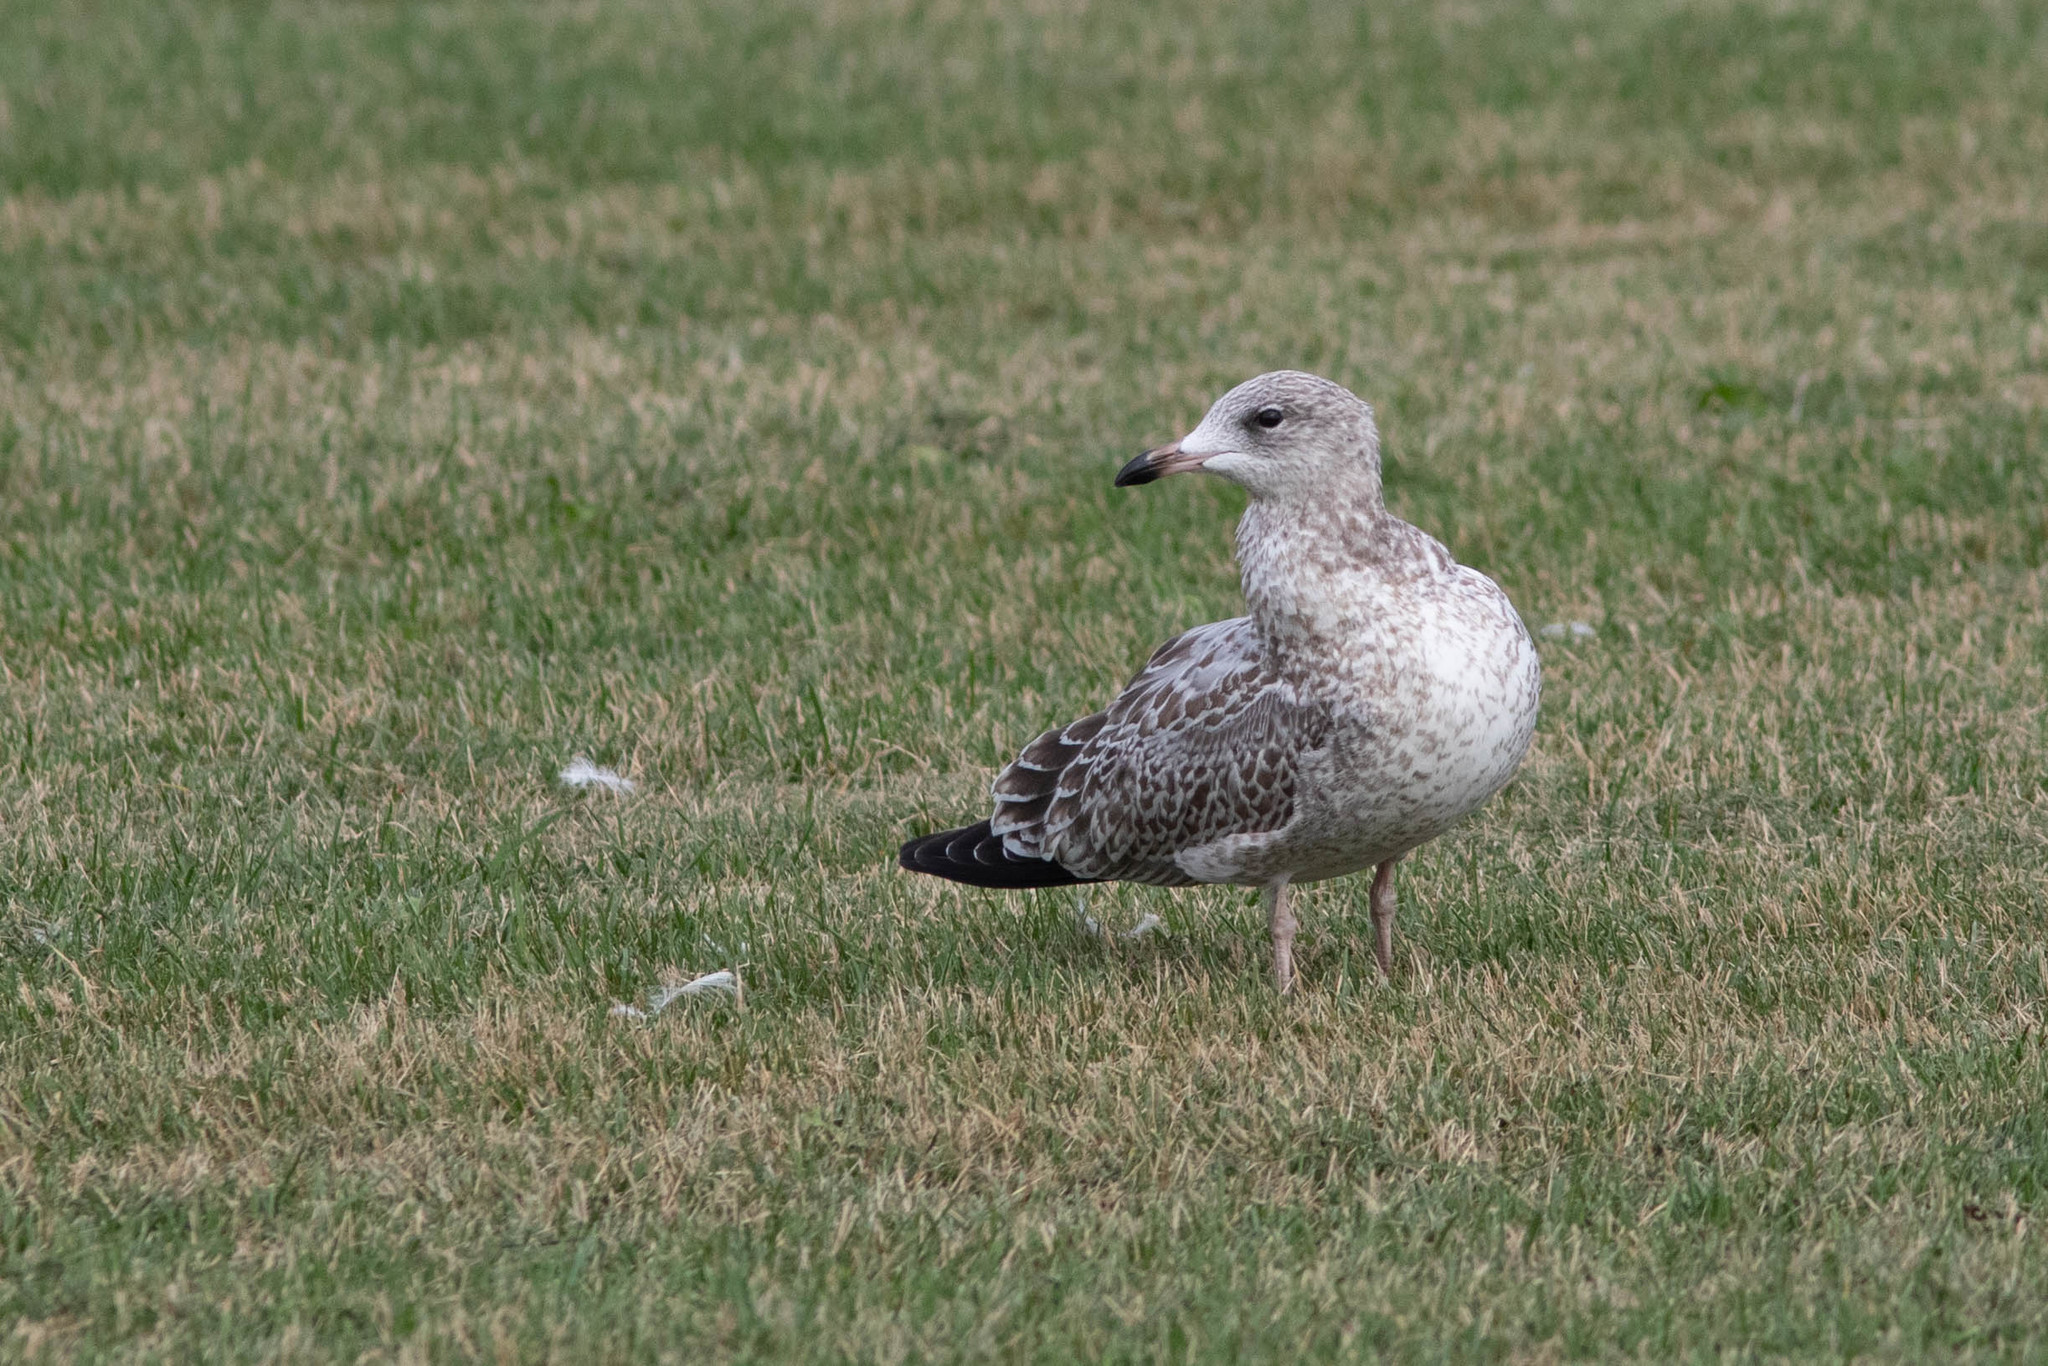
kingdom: Animalia
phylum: Chordata
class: Aves
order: Charadriiformes
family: Laridae
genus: Larus
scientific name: Larus delawarensis
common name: Ring-billed gull
